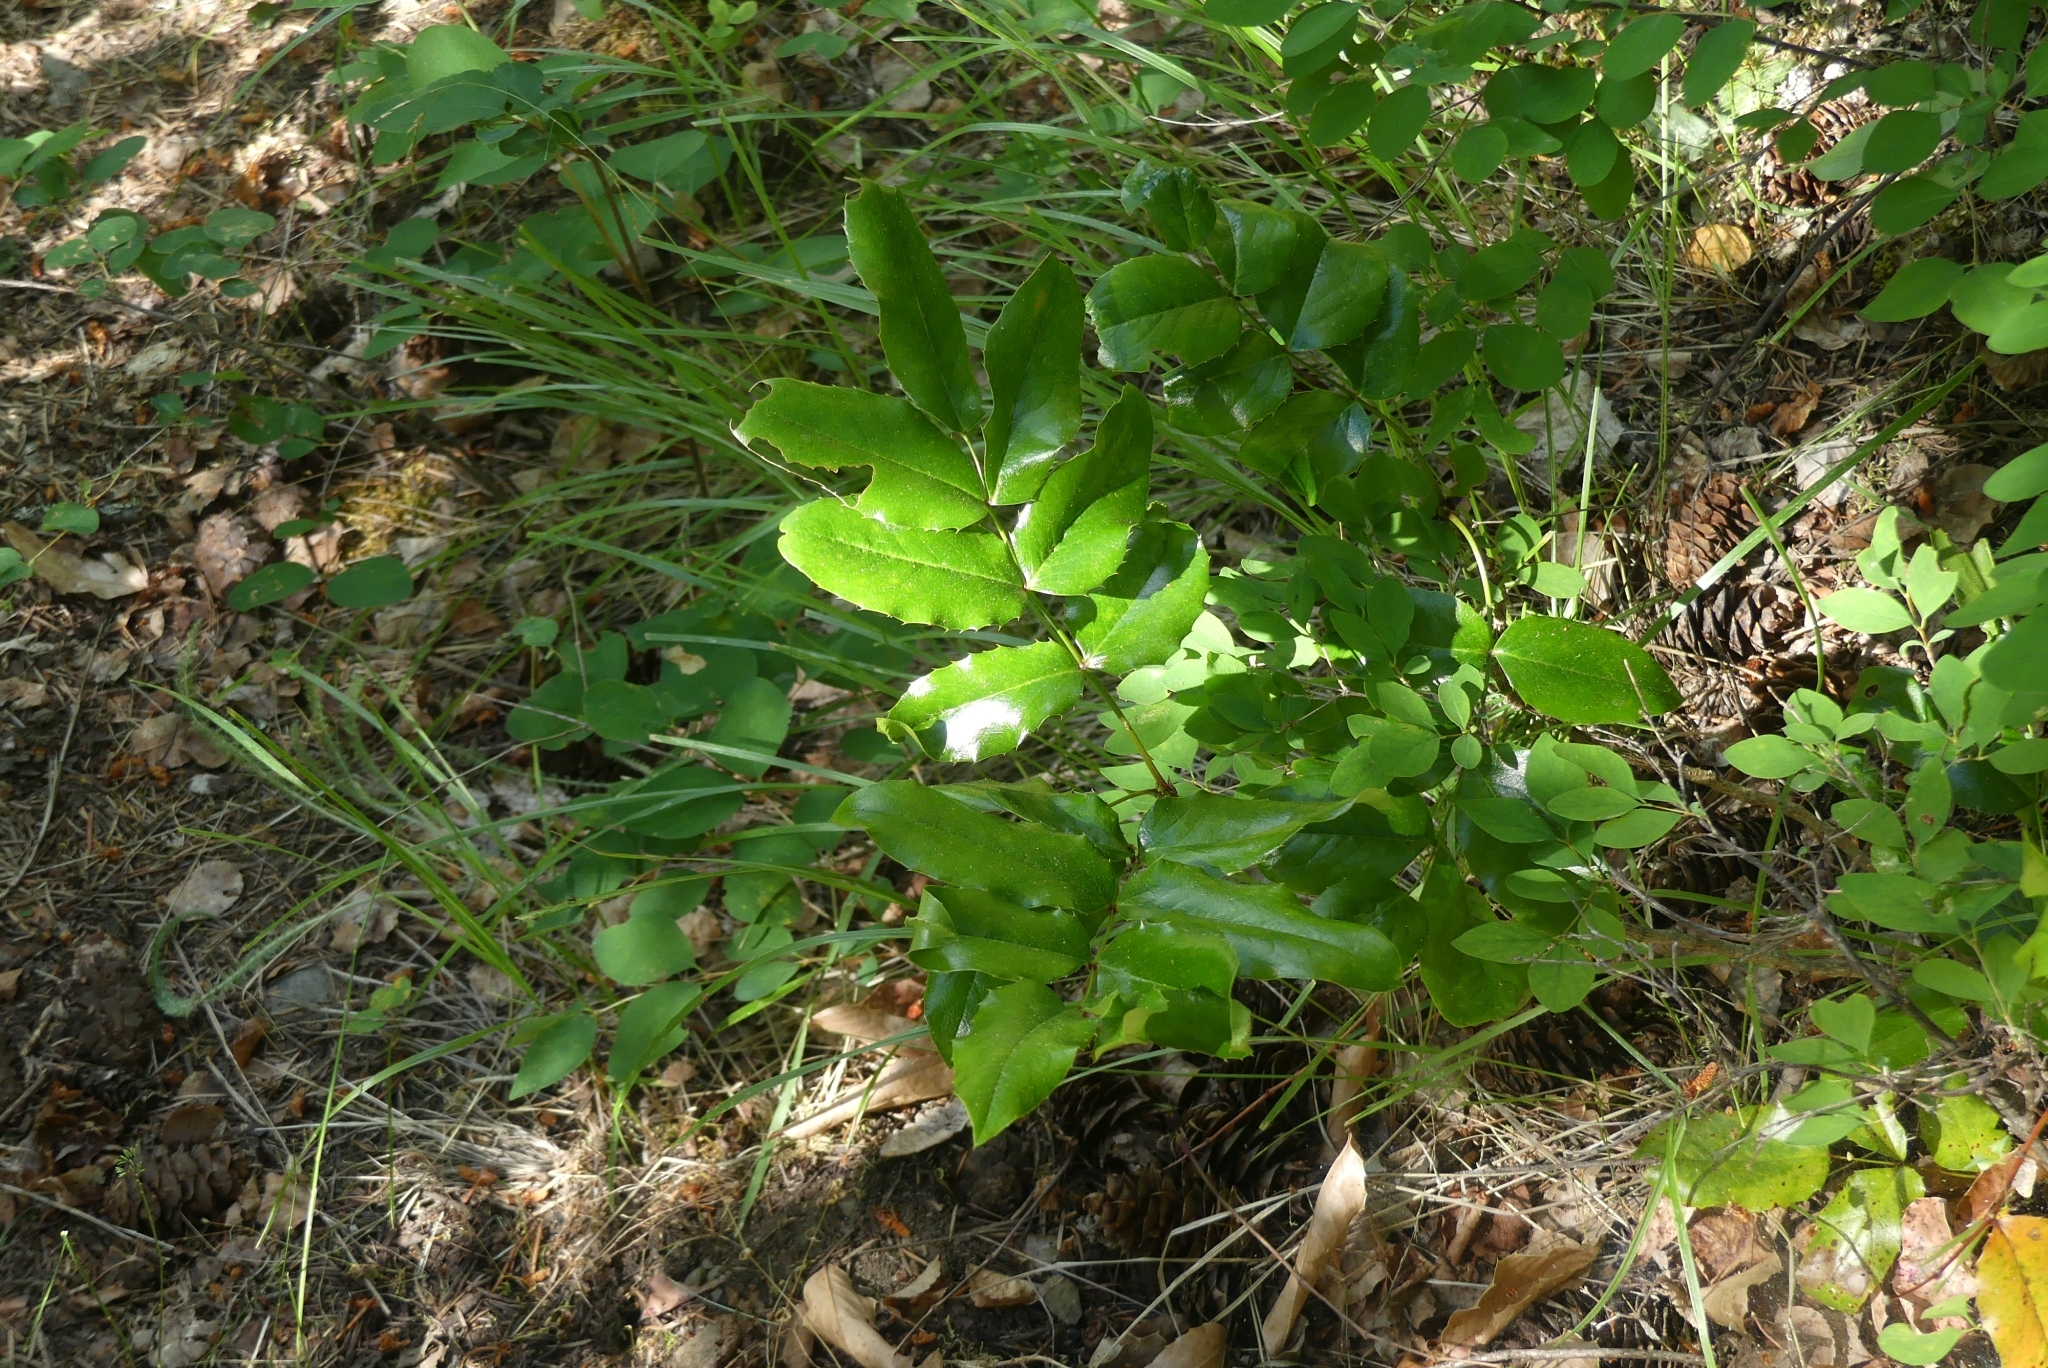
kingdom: Plantae
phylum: Tracheophyta
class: Magnoliopsida
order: Ranunculales
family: Berberidaceae
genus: Mahonia
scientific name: Mahonia aquifolium
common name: Oregon-grape
